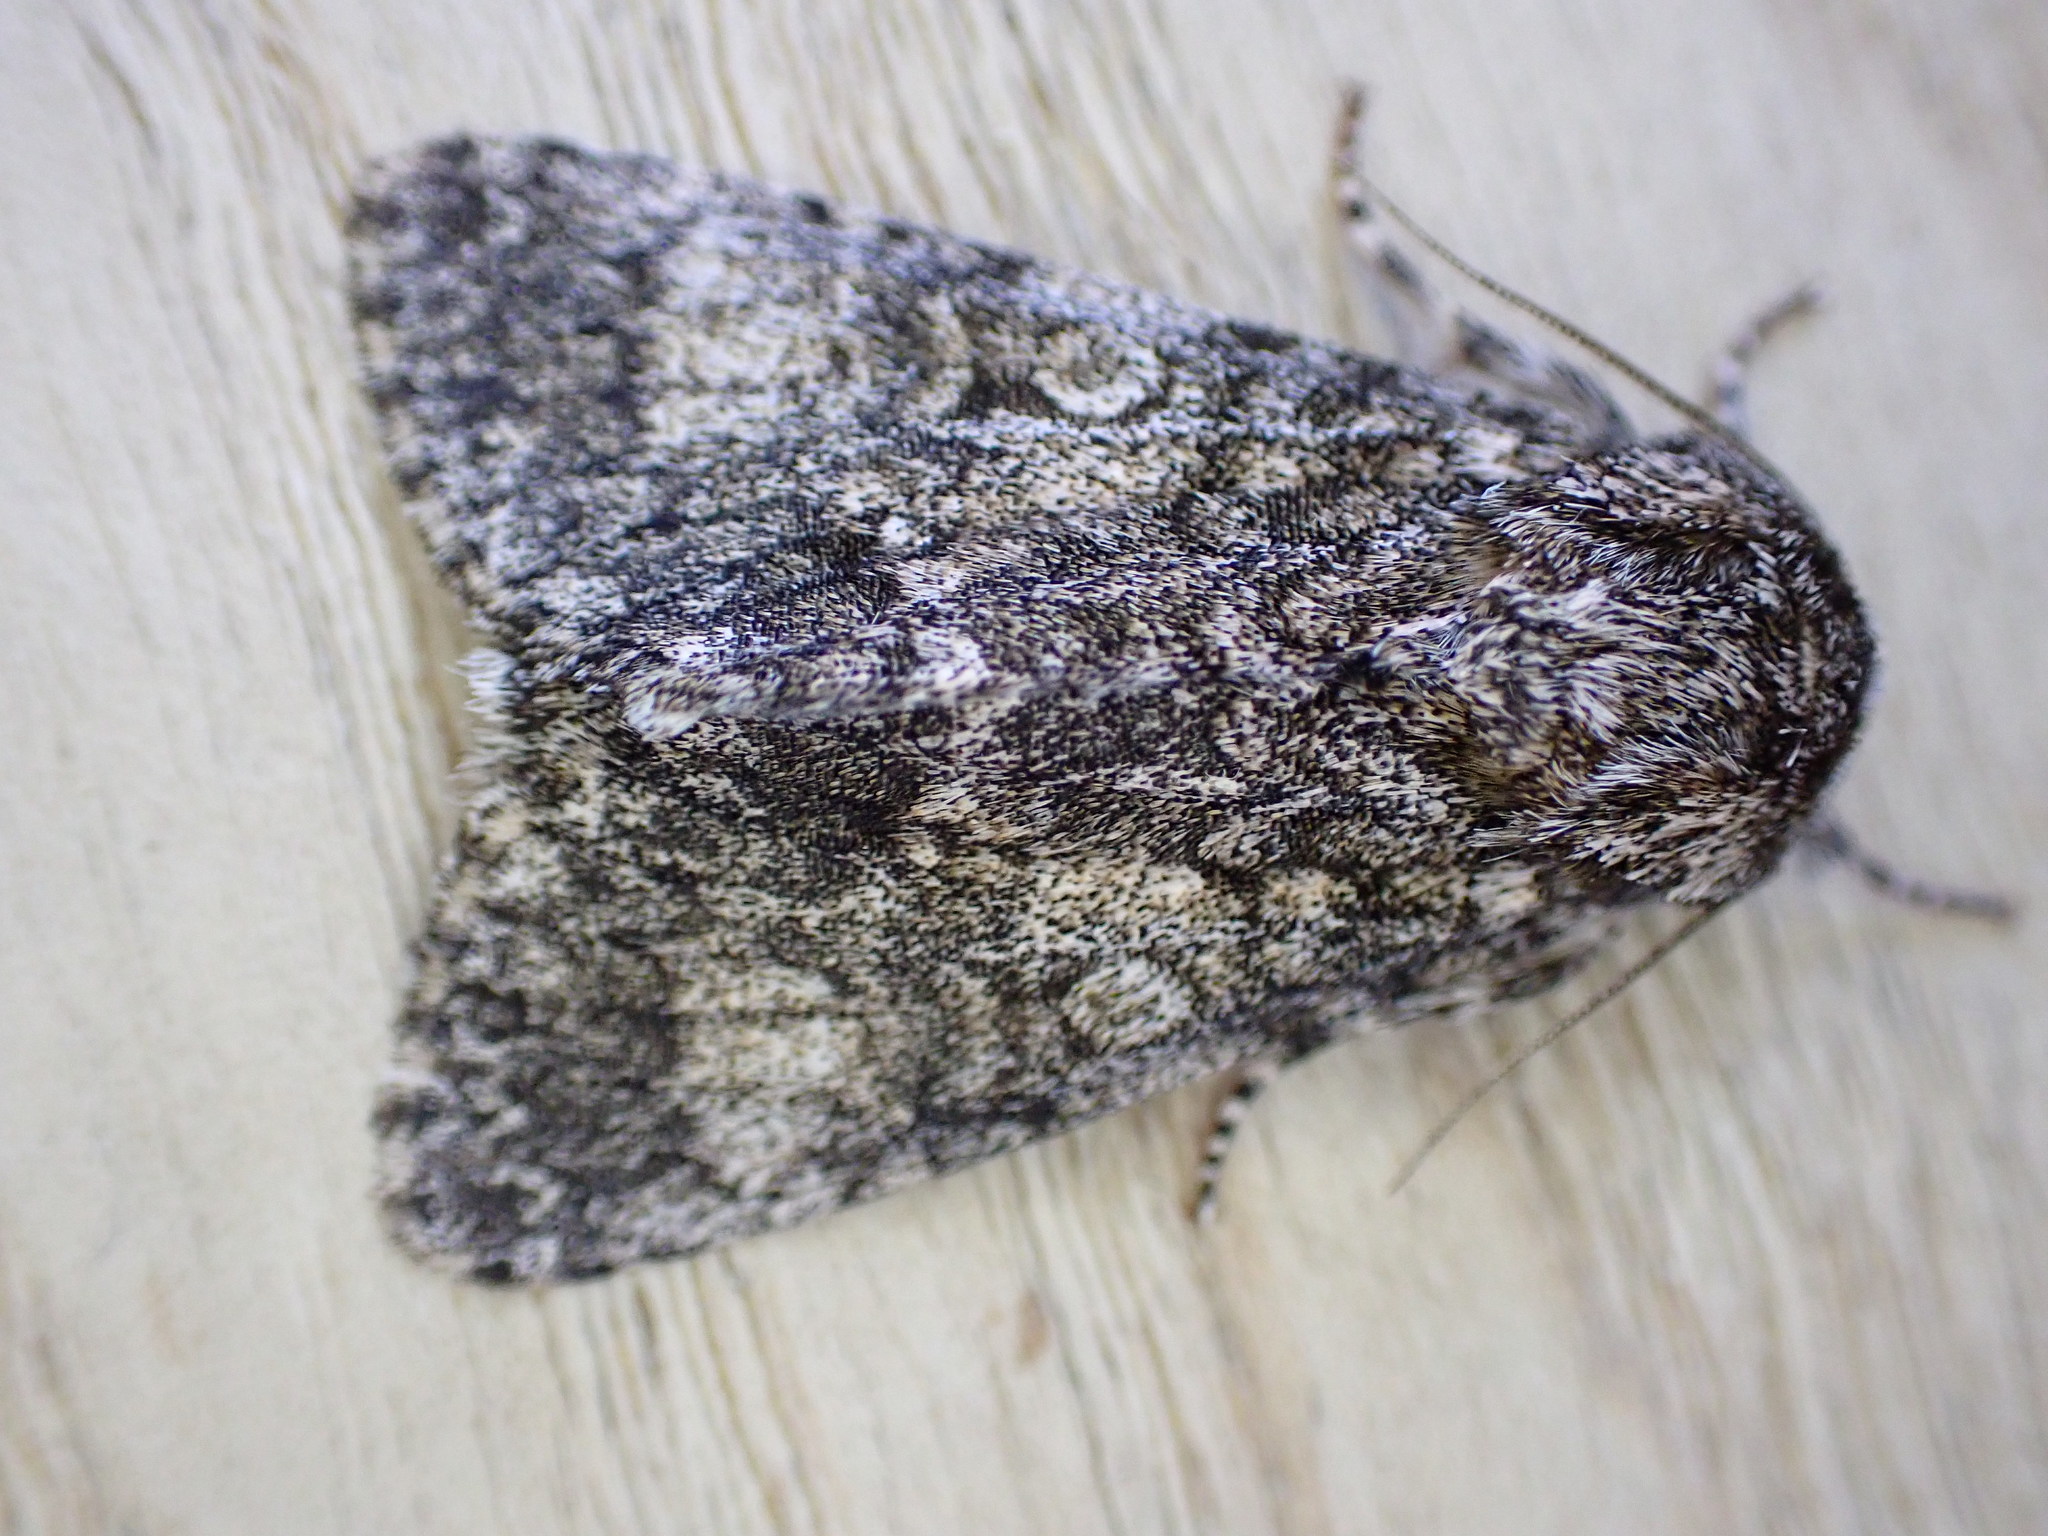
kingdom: Animalia
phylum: Arthropoda
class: Insecta
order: Lepidoptera
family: Noctuidae
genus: Acronicta
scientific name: Acronicta megacephala
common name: Poplar grey
